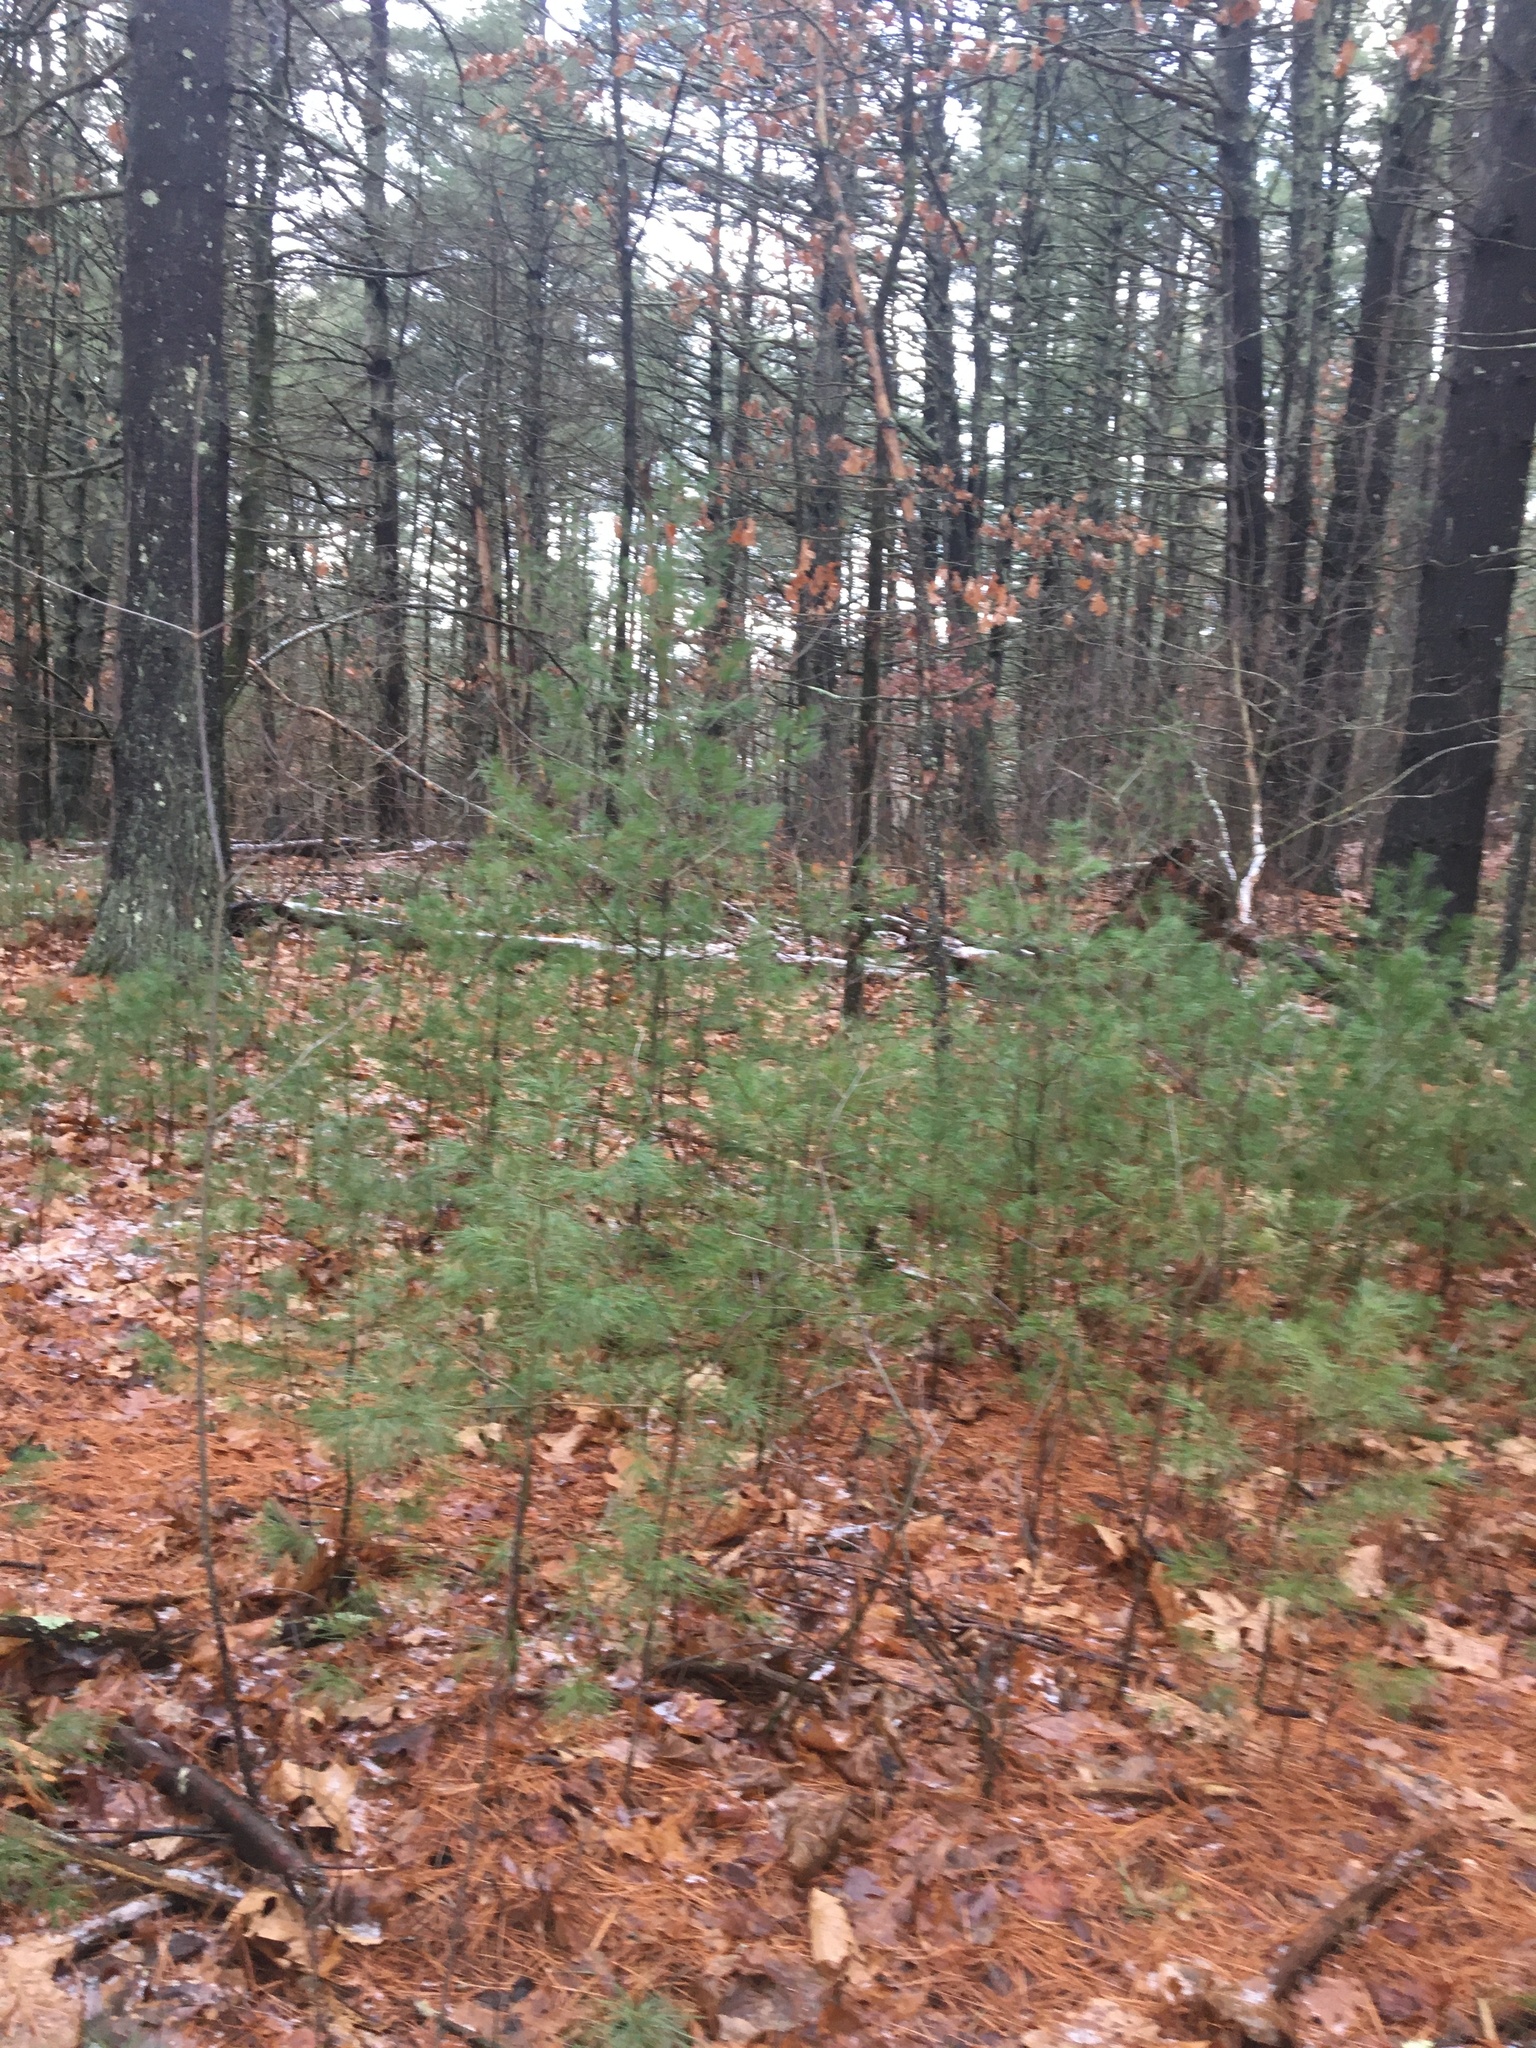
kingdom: Plantae
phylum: Tracheophyta
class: Pinopsida
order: Pinales
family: Pinaceae
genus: Pinus
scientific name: Pinus strobus
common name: Weymouth pine
